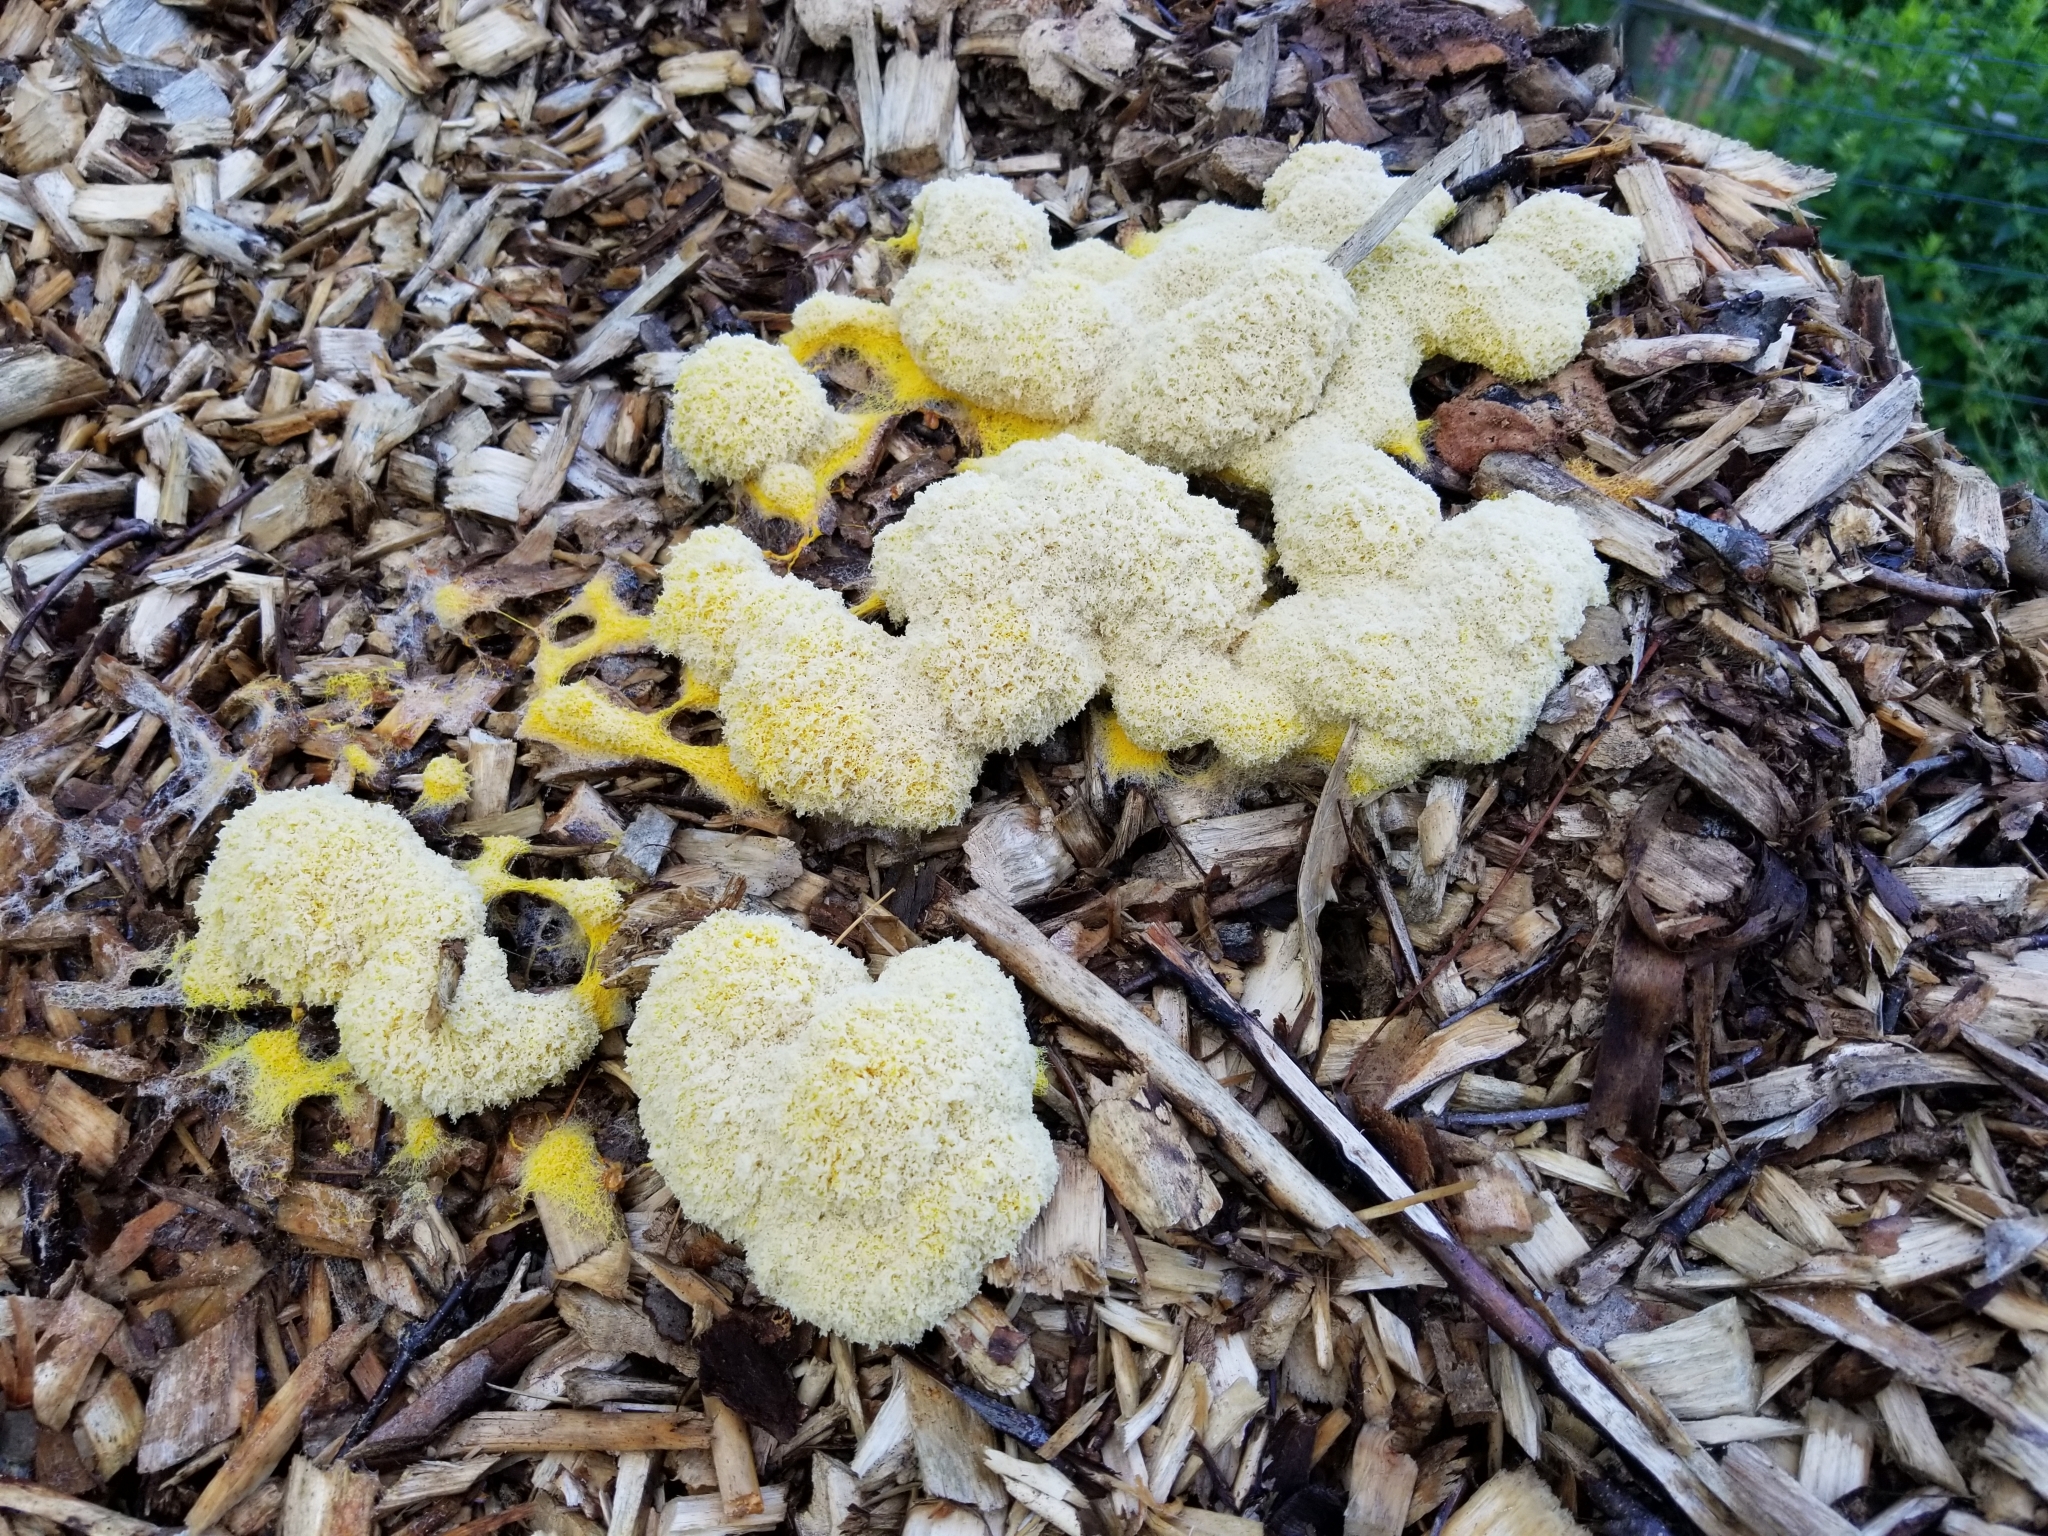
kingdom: Protozoa
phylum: Mycetozoa
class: Myxomycetes
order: Physarales
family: Physaraceae
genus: Fuligo
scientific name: Fuligo septica
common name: Dog vomit slime mold
